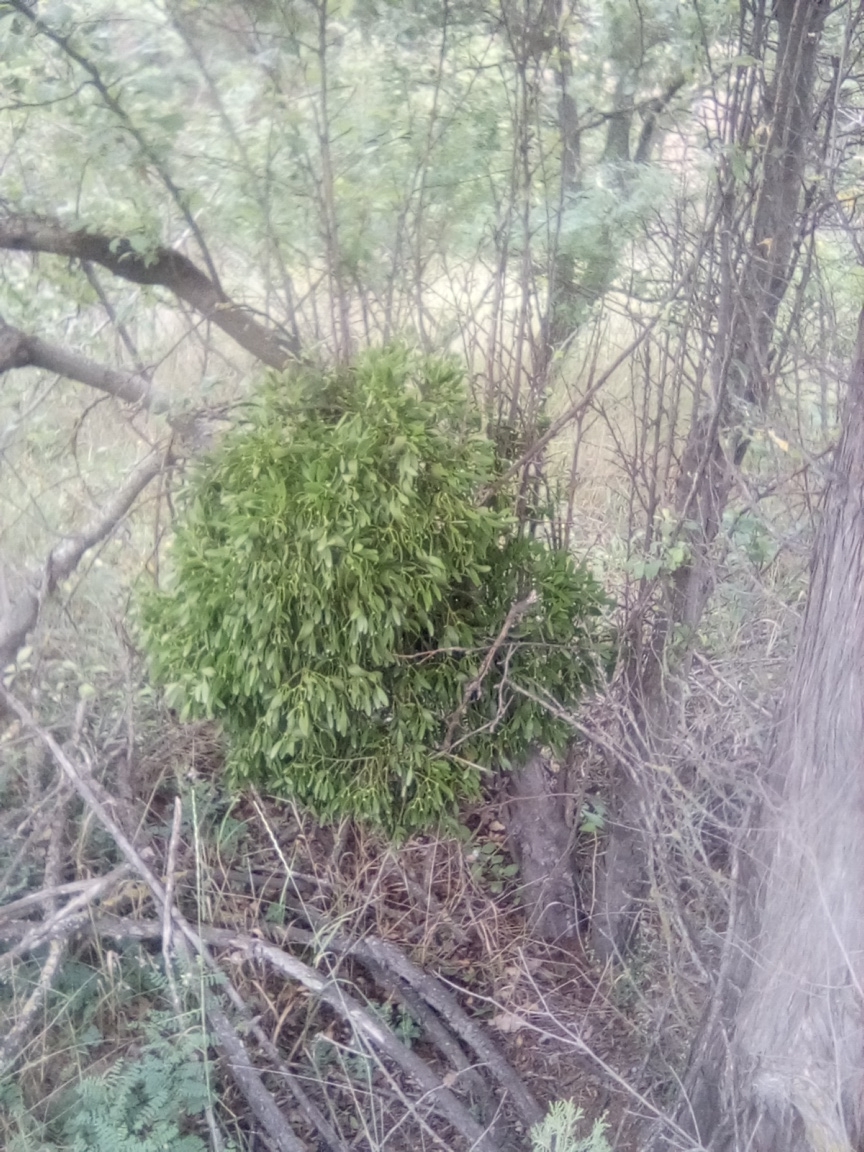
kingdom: Plantae
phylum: Tracheophyta
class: Magnoliopsida
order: Santalales
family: Viscaceae
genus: Viscum
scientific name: Viscum album
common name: Mistletoe
